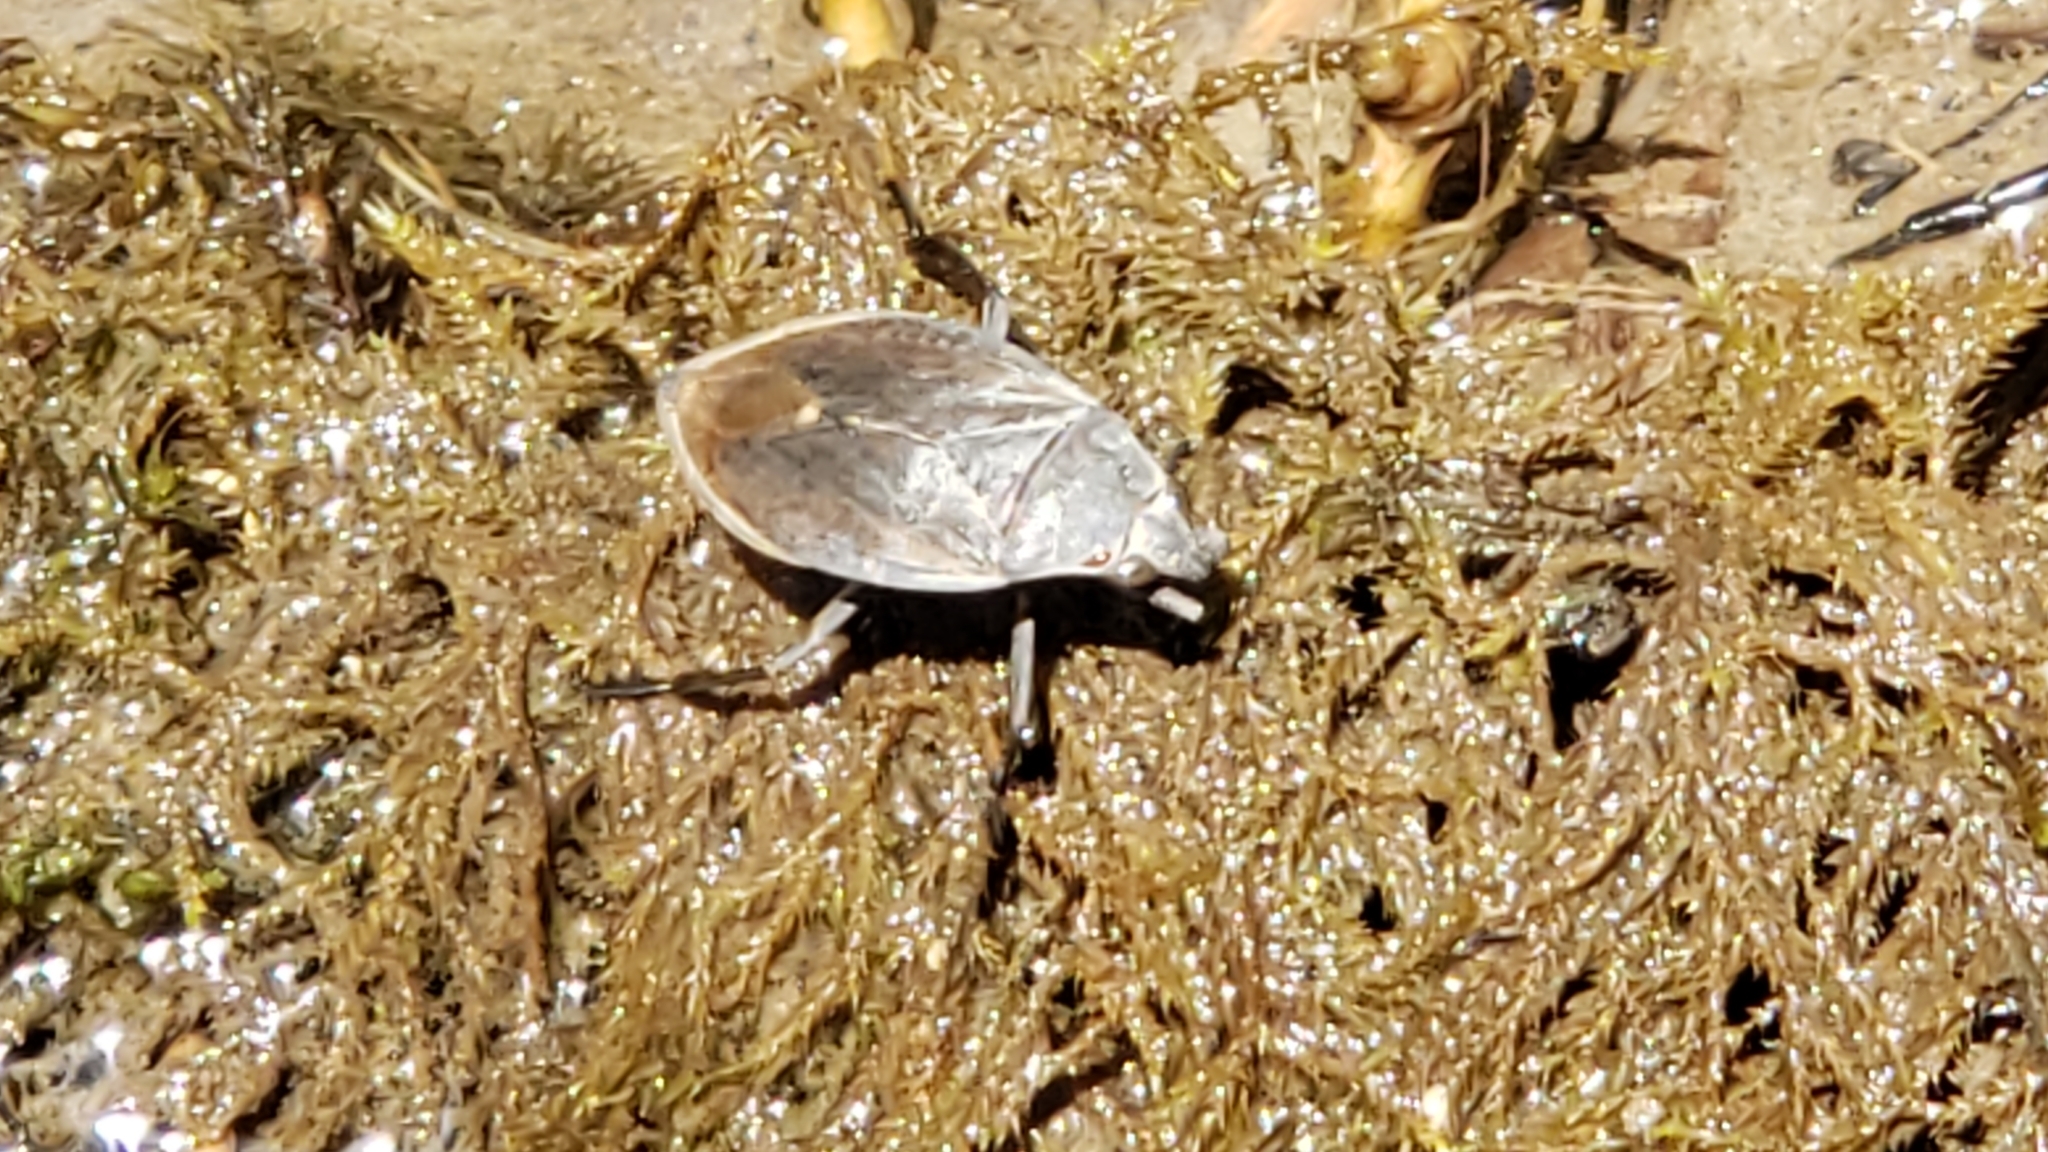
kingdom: Animalia
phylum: Arthropoda
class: Insecta
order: Hemiptera
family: Belostomatidae
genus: Belostoma
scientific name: Belostoma flumineum
